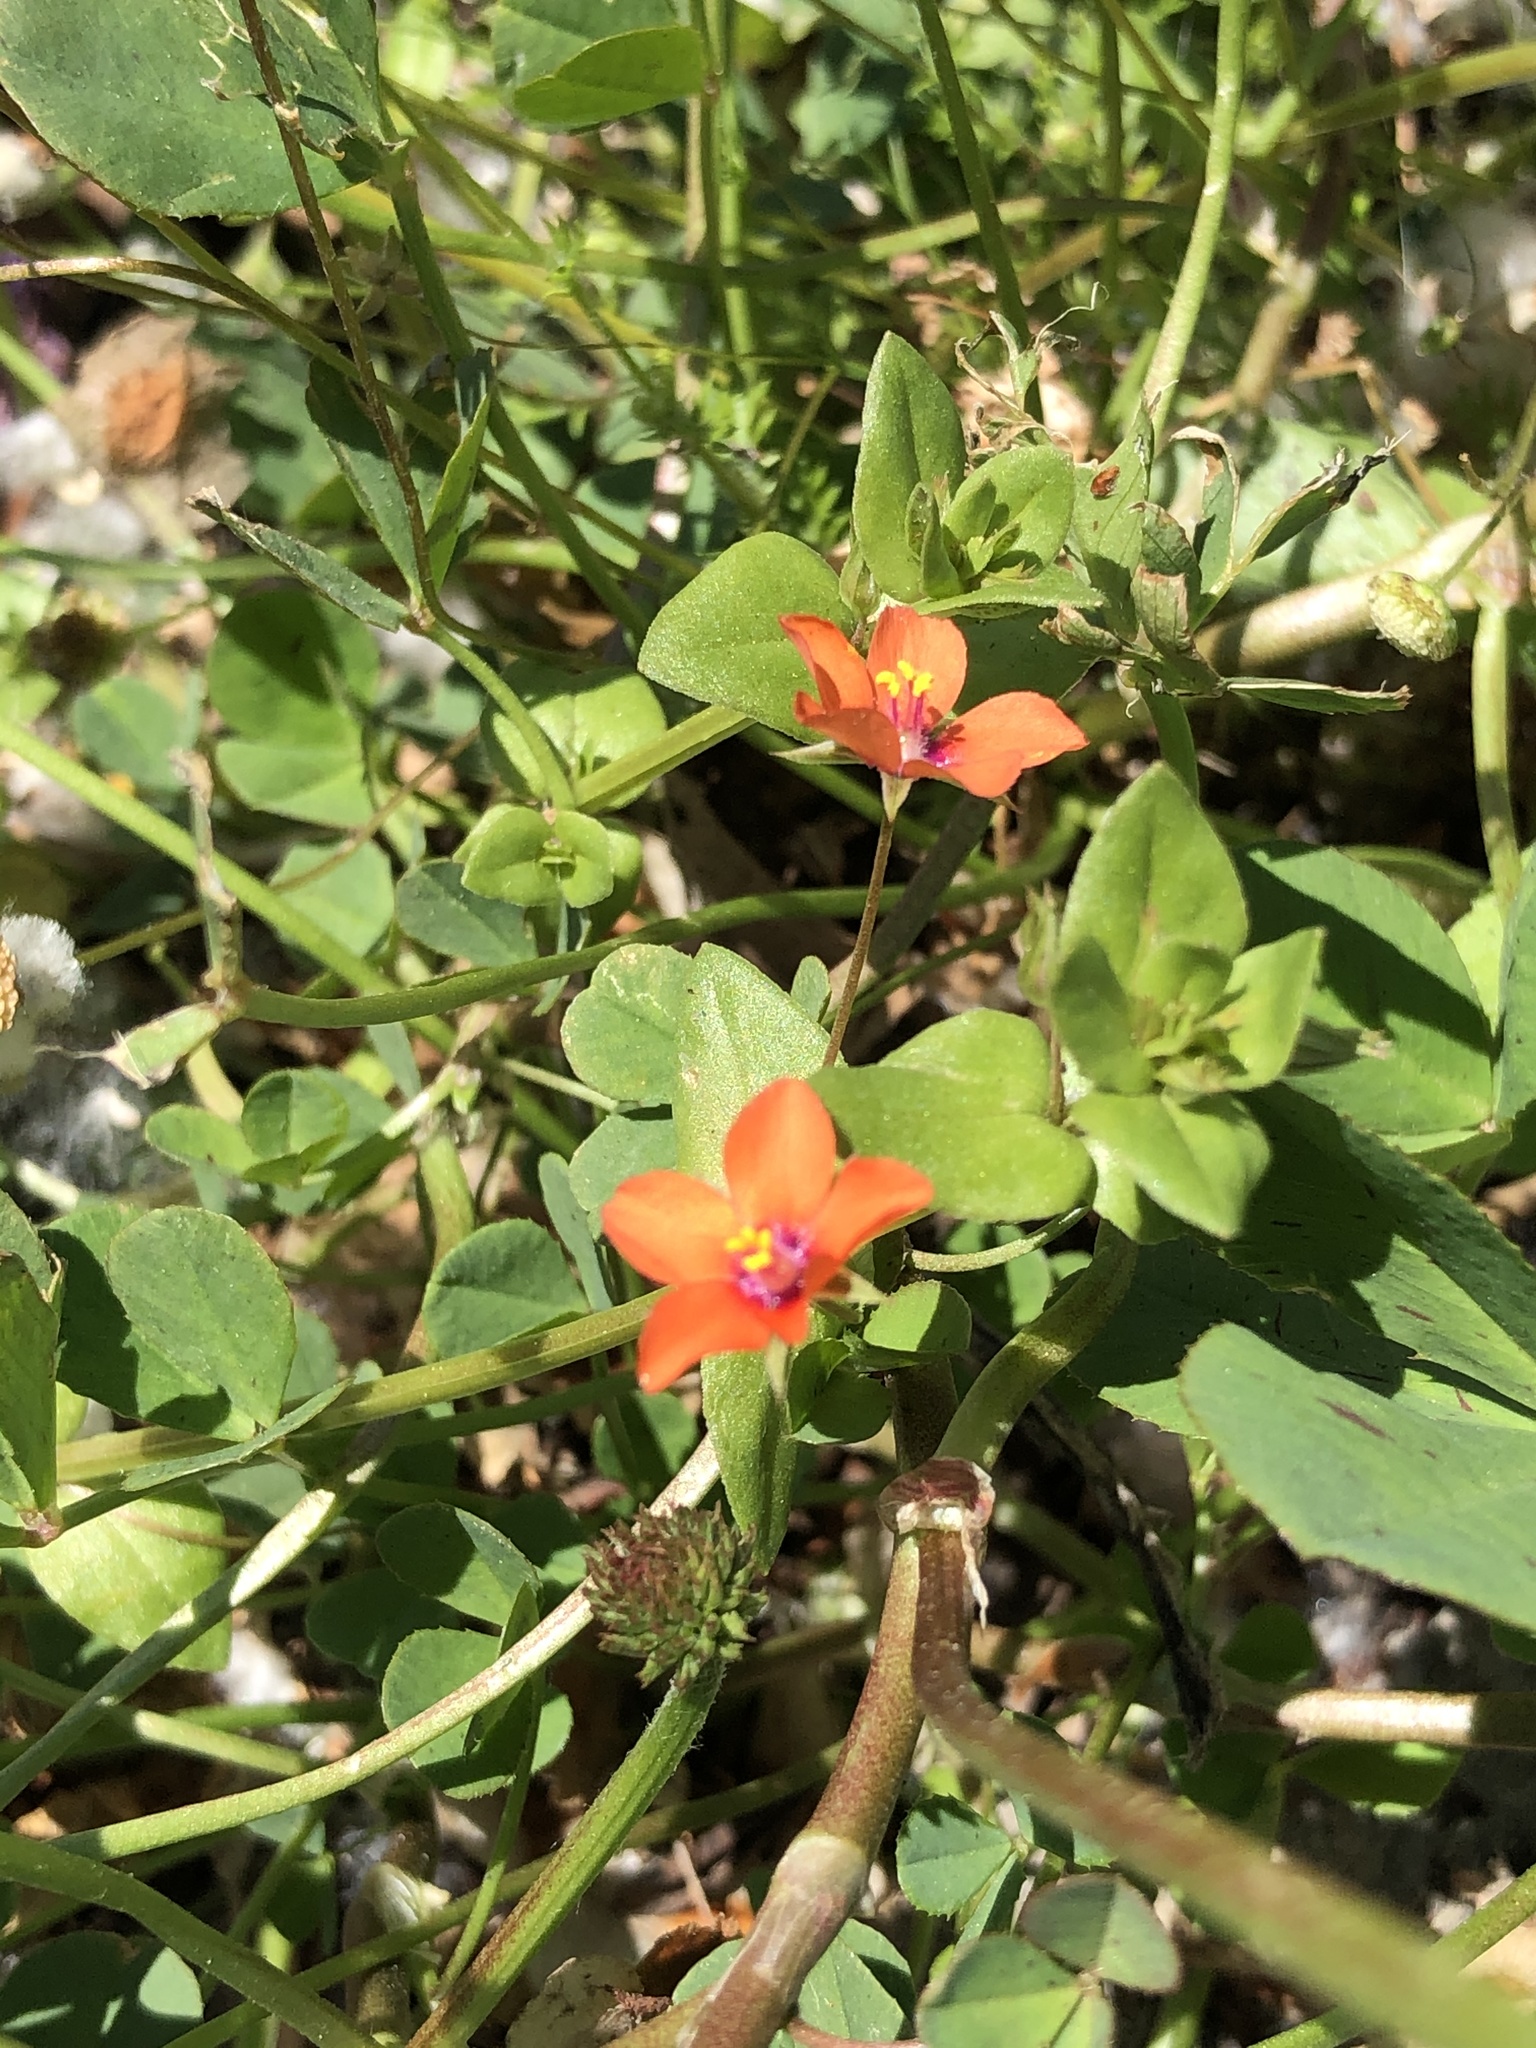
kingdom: Plantae
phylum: Tracheophyta
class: Magnoliopsida
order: Ericales
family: Primulaceae
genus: Lysimachia
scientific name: Lysimachia arvensis
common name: Scarlet pimpernel
